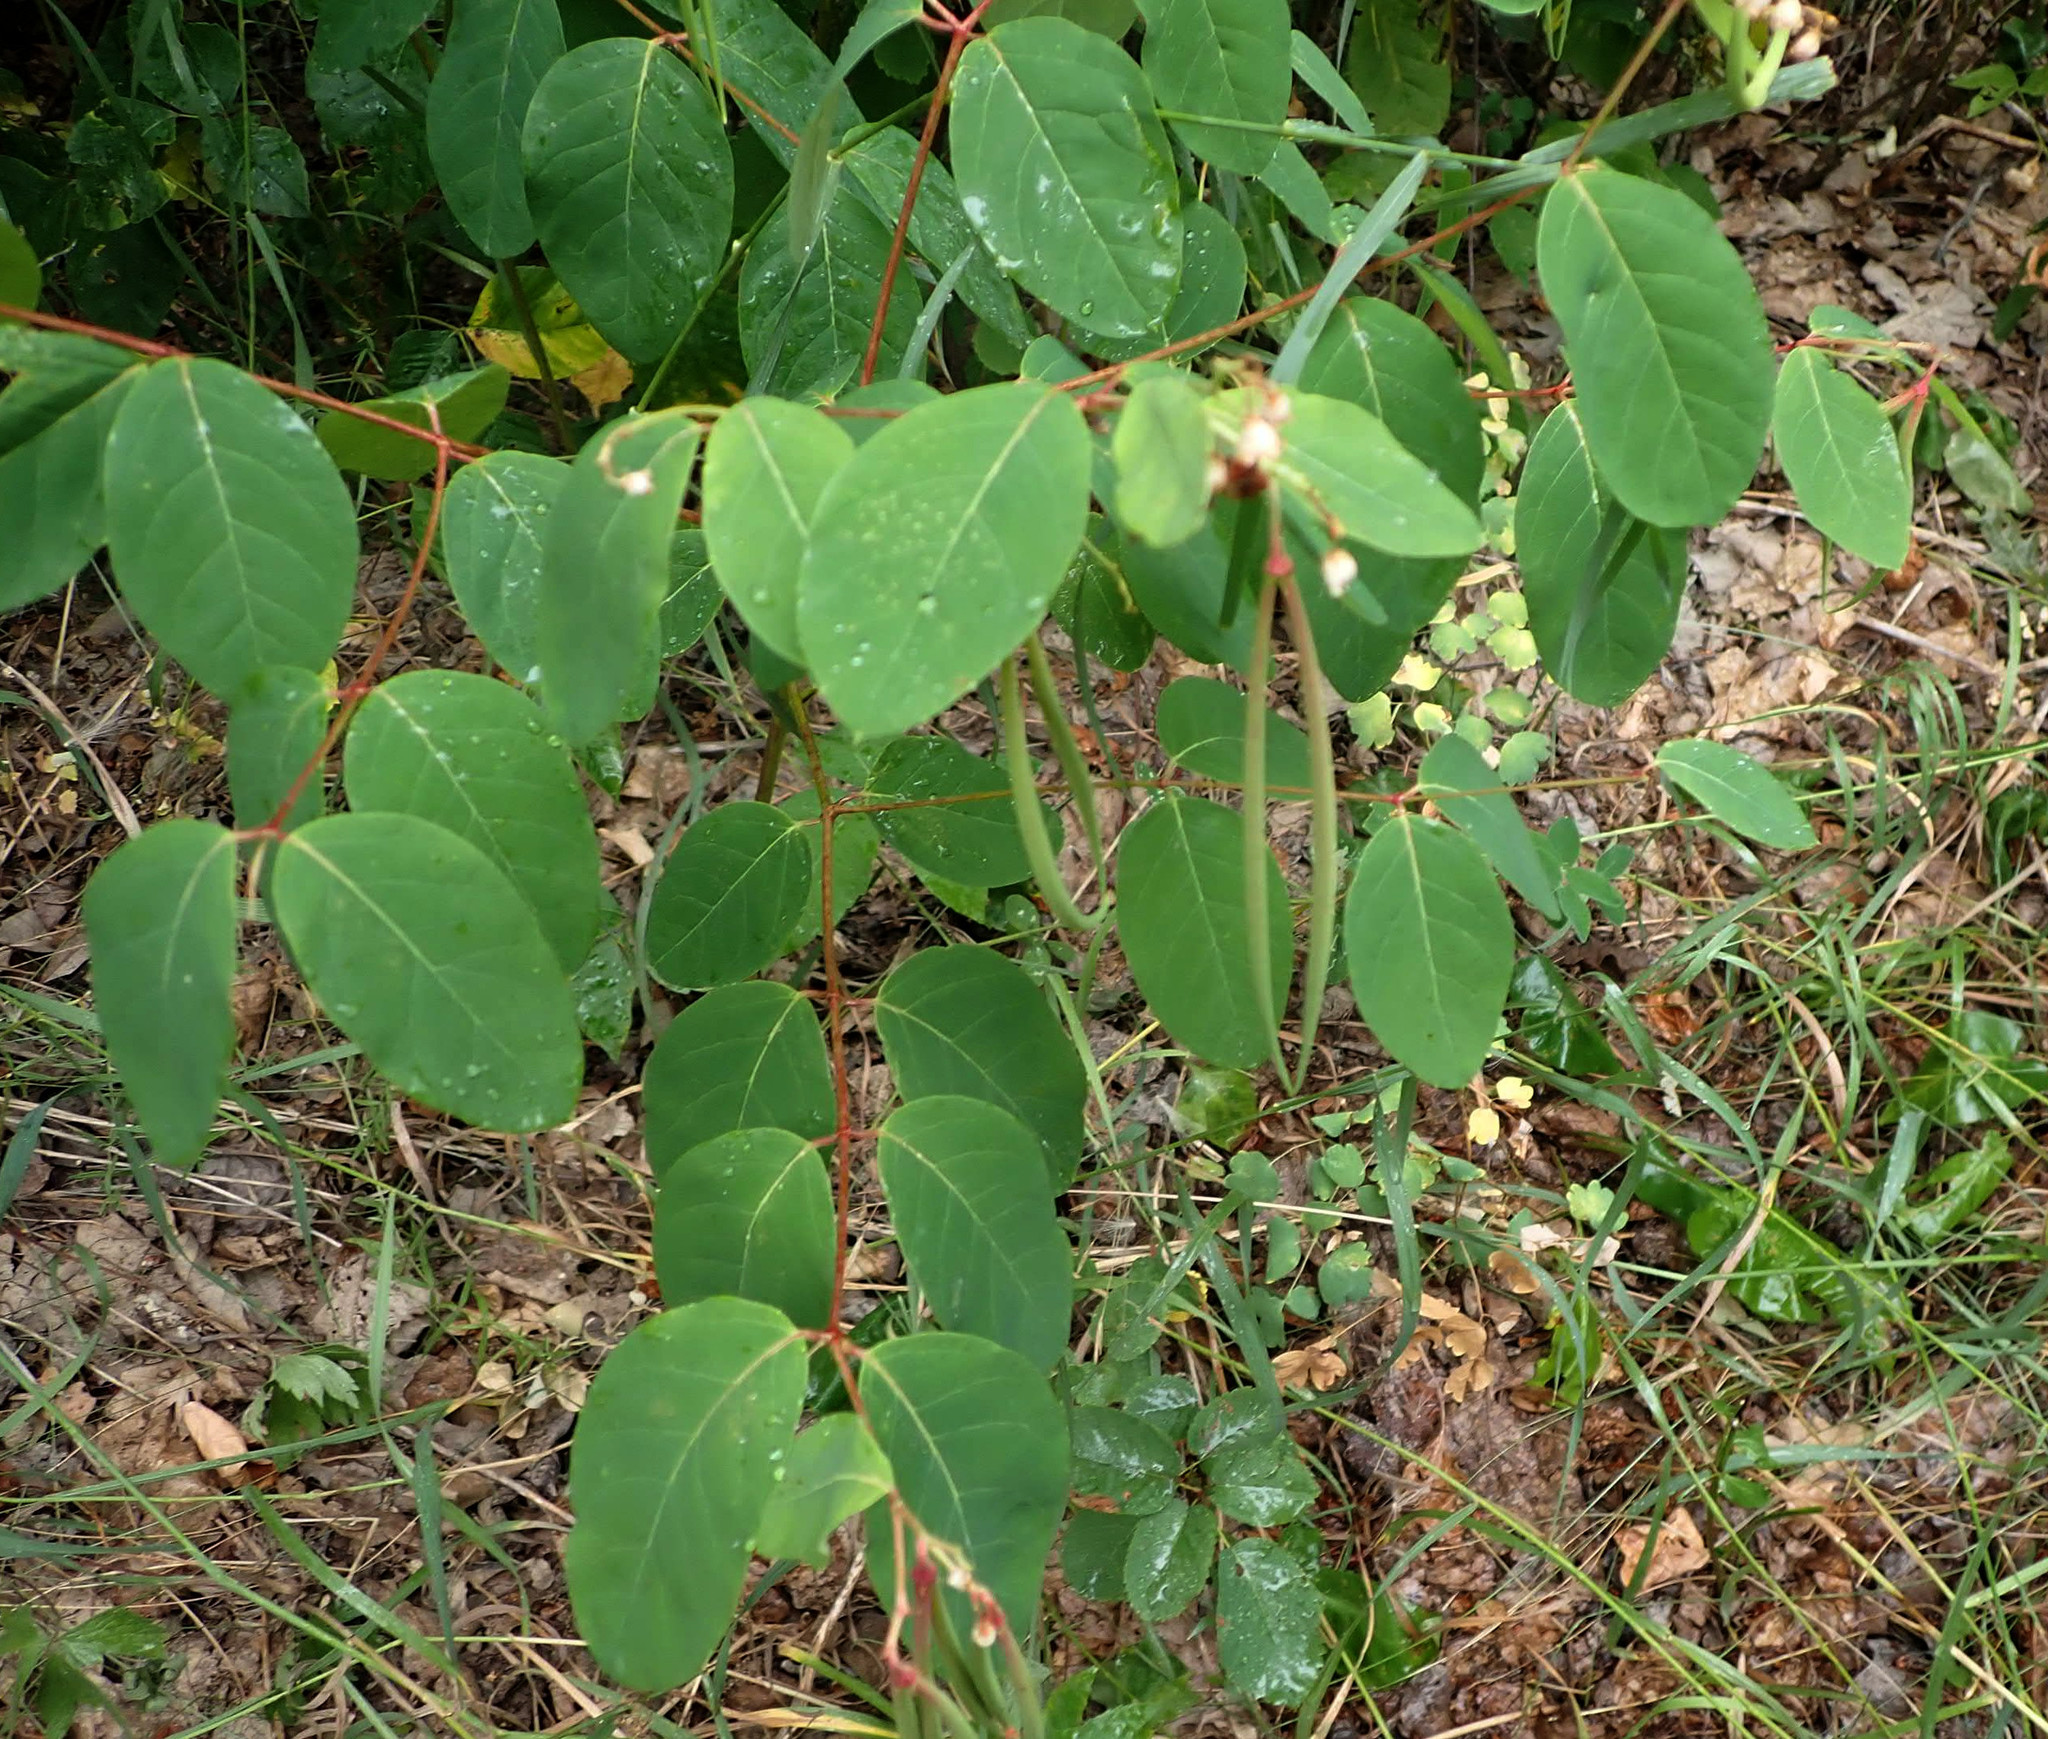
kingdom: Plantae
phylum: Tracheophyta
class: Magnoliopsida
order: Gentianales
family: Apocynaceae
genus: Apocynum
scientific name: Apocynum androsaemifolium
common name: Spreading dogbane
